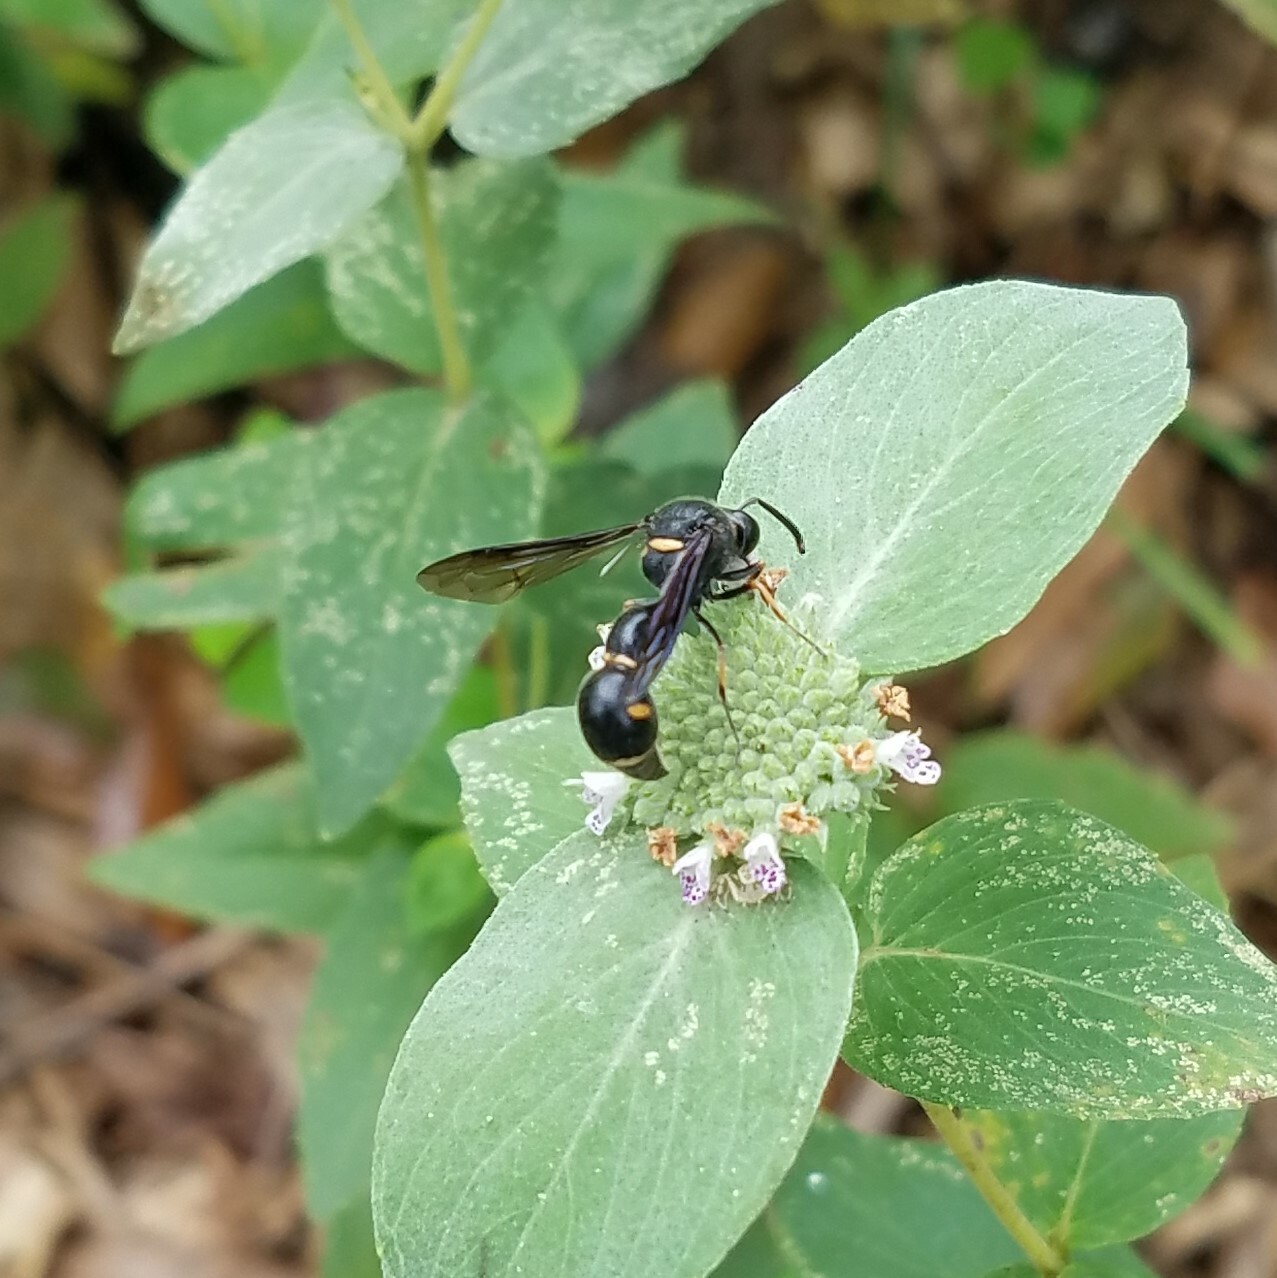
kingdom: Animalia
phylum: Arthropoda
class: Insecta
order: Hymenoptera
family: Vespidae
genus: Eumenes
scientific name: Eumenes fraternus
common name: Fraternal potter wasp
